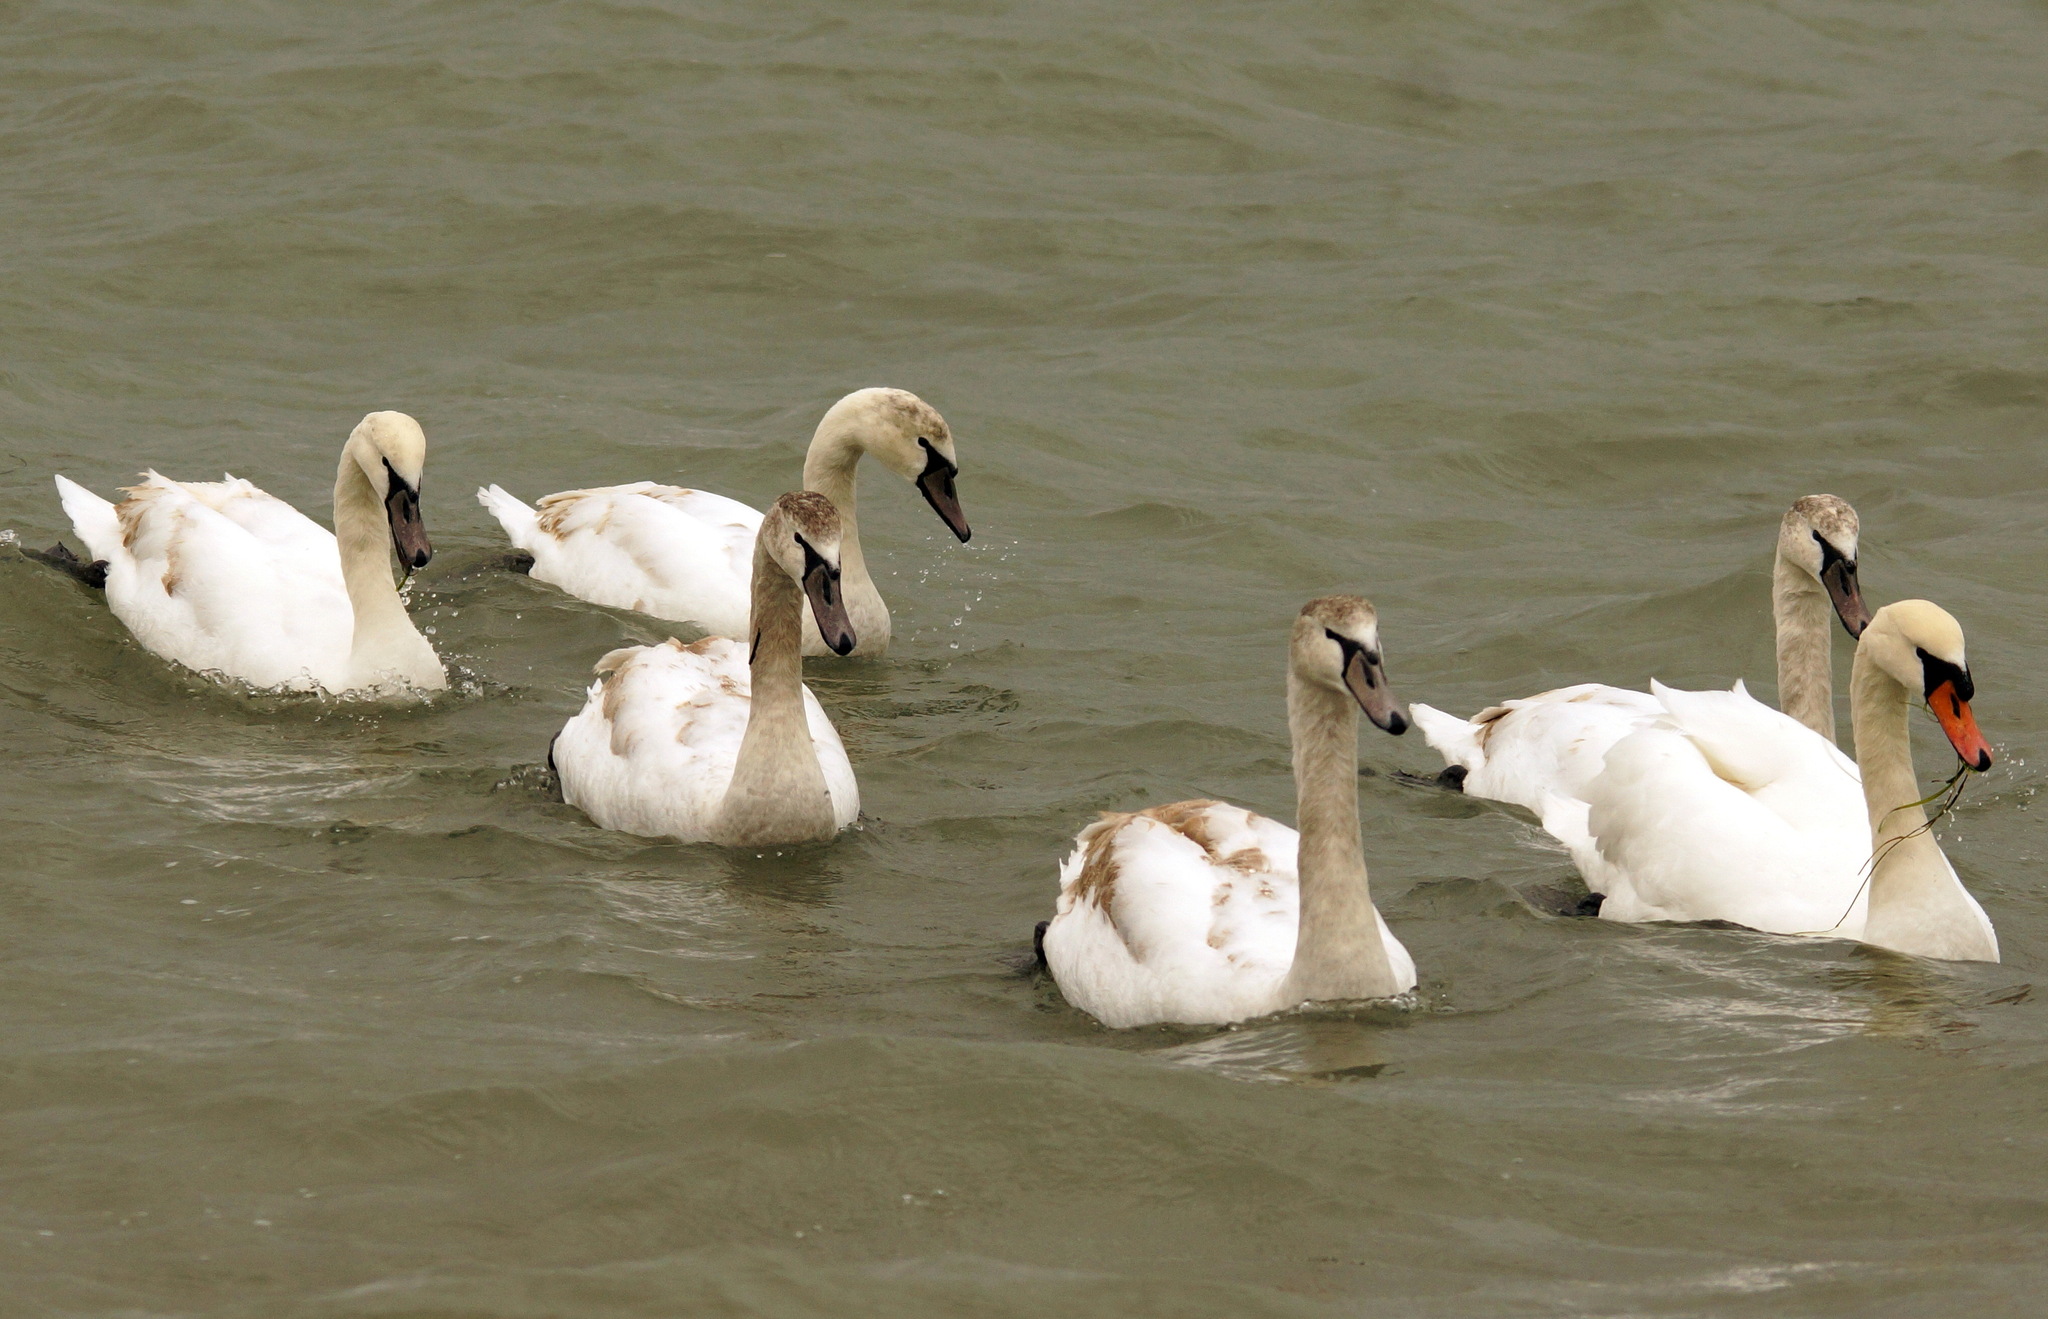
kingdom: Animalia
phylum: Chordata
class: Aves
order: Anseriformes
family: Anatidae
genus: Cygnus
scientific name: Cygnus olor
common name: Mute swan
